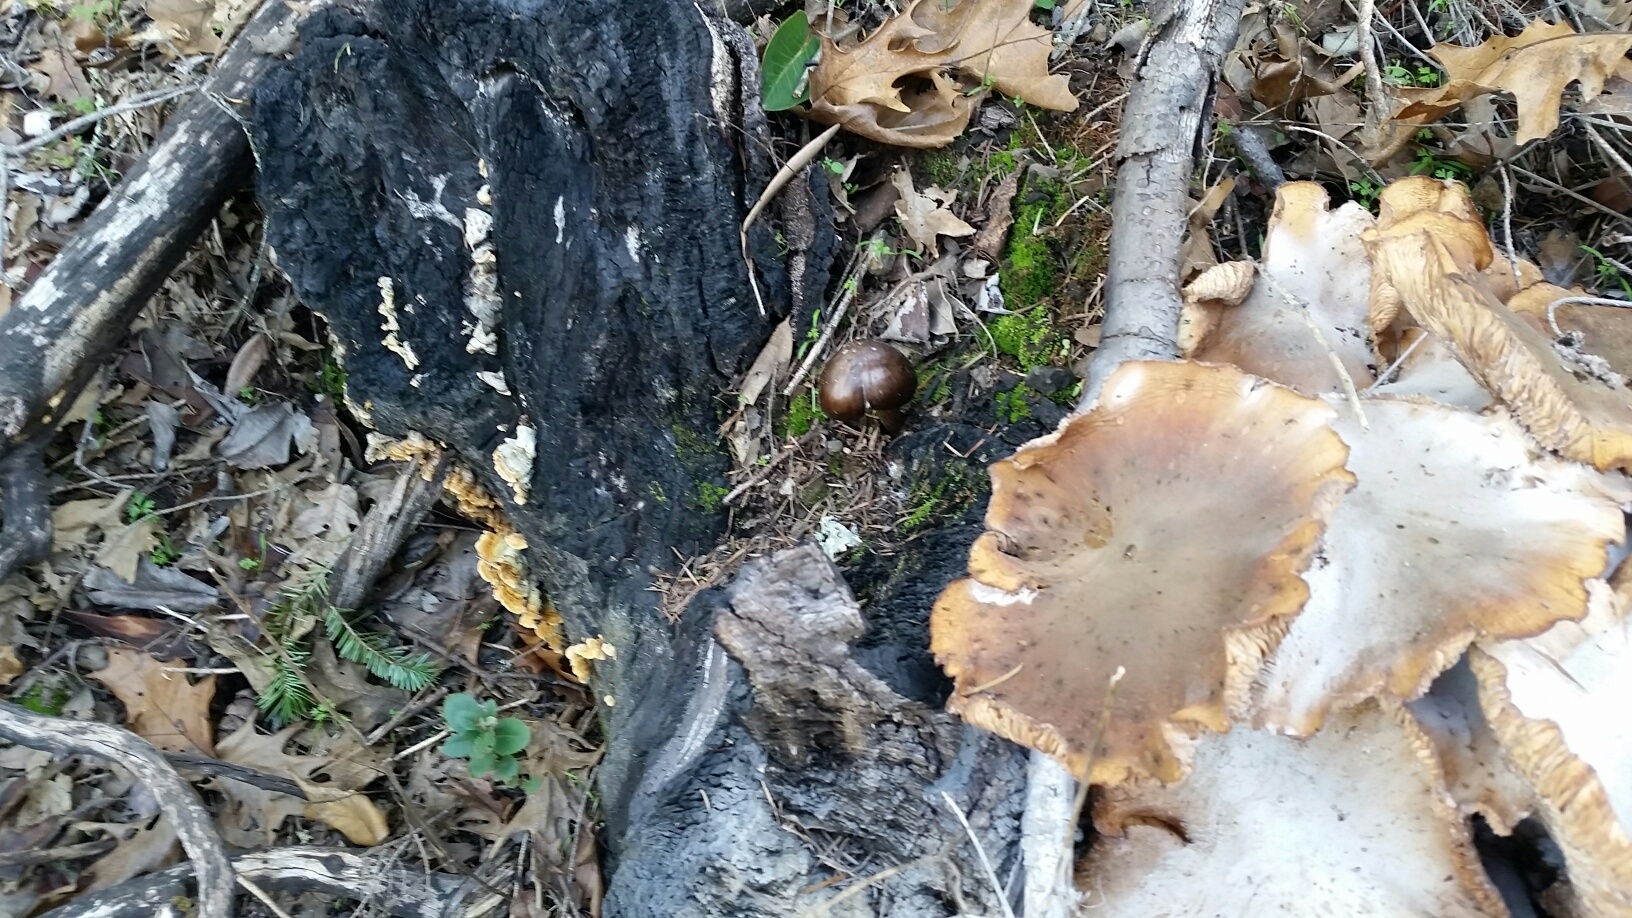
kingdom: Fungi
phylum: Basidiomycota
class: Agaricomycetes
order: Agaricales
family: Pluteaceae
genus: Pluteus
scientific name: Pluteus exilis
